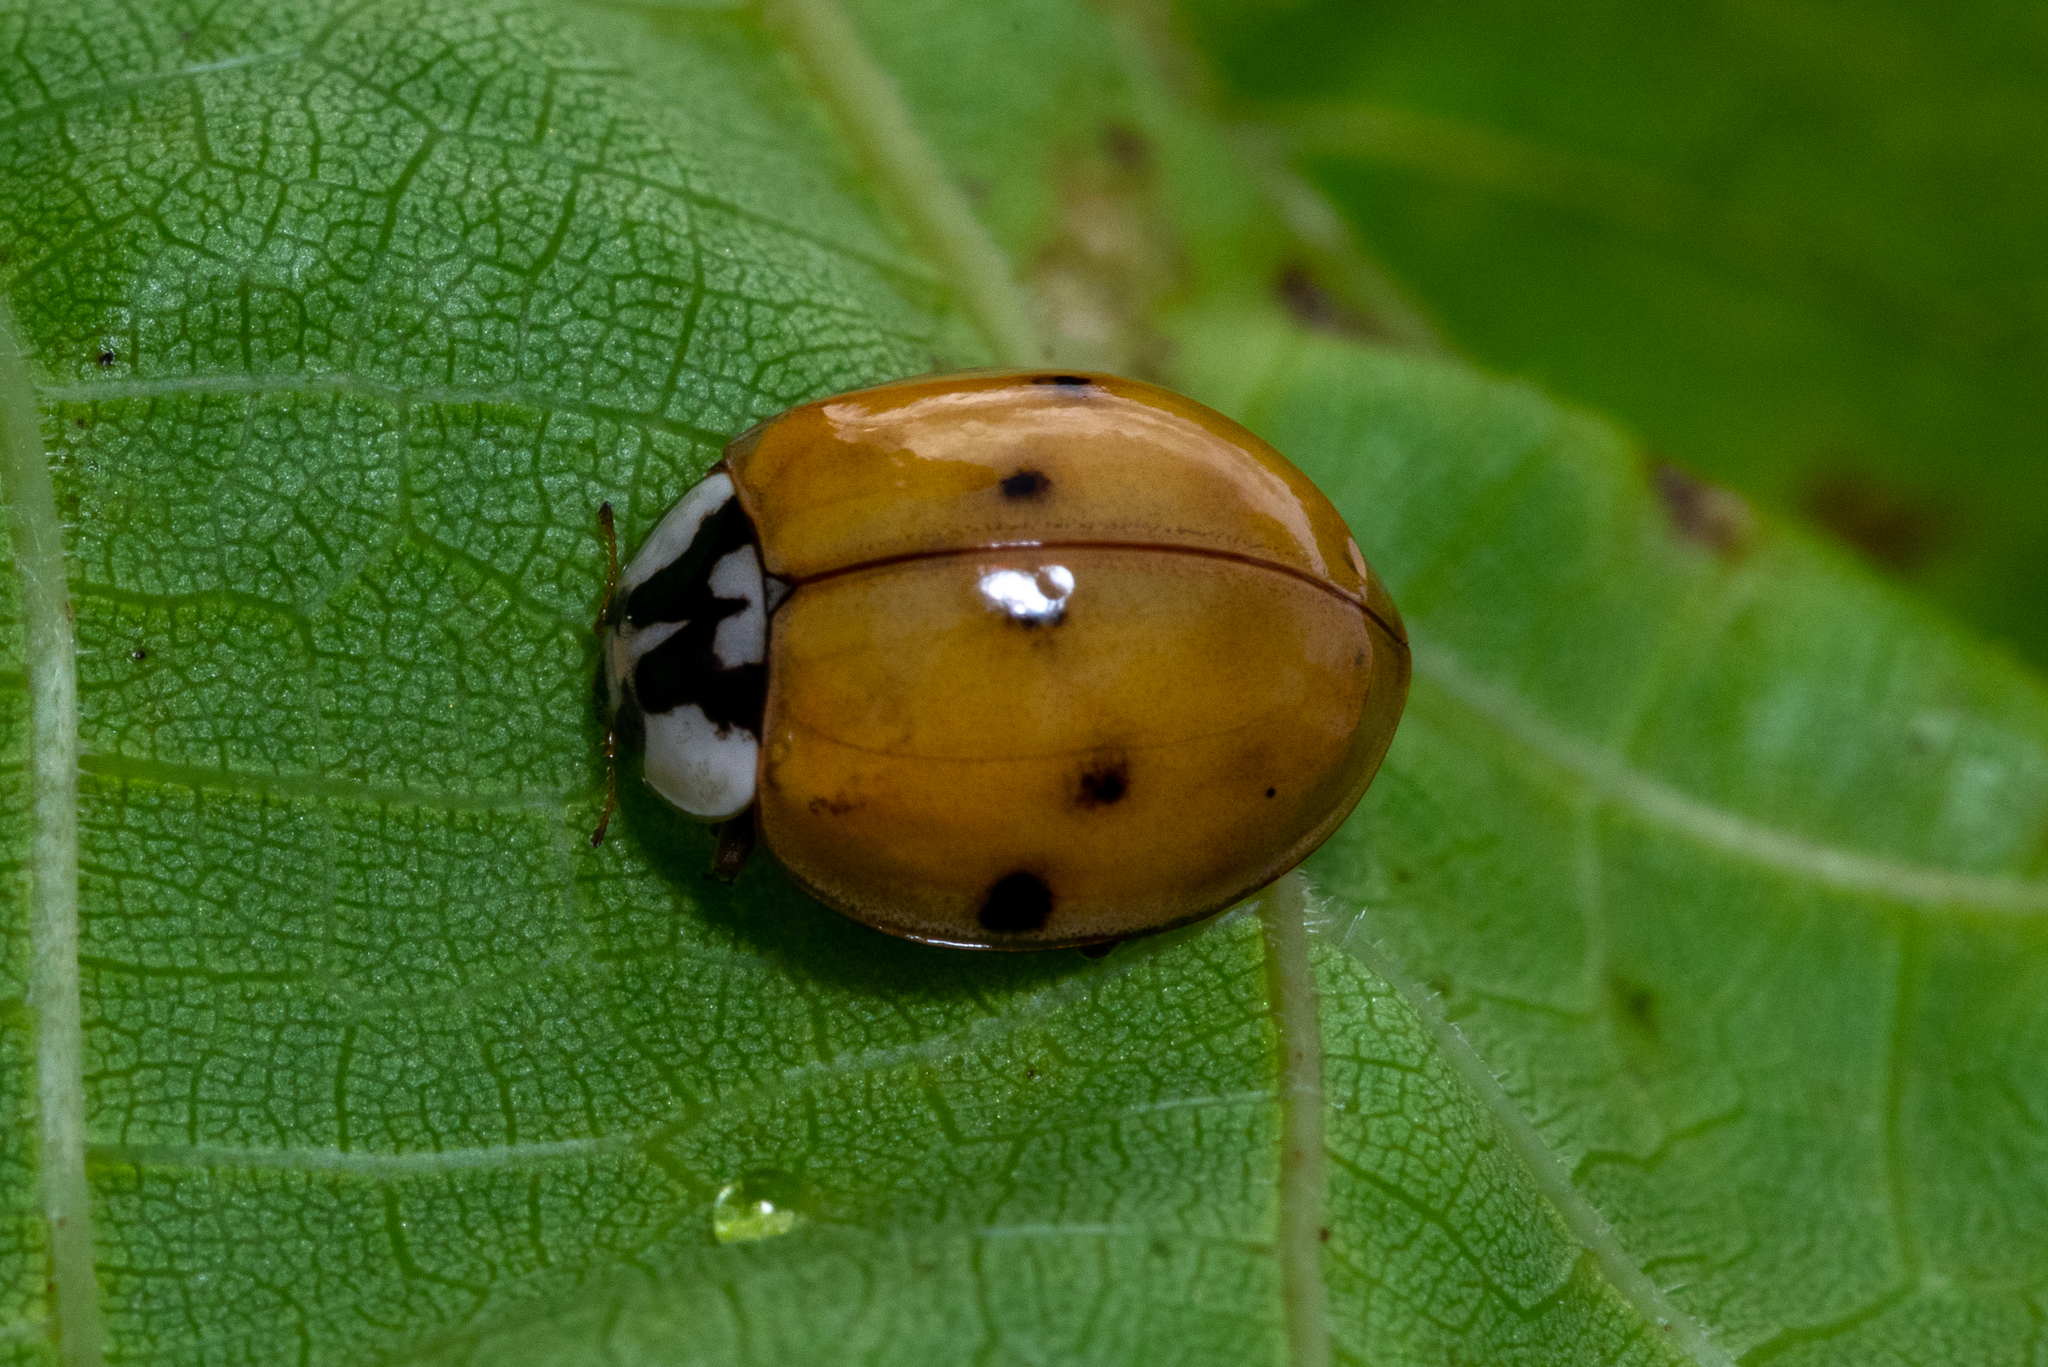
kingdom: Animalia
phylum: Arthropoda
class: Insecta
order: Coleoptera
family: Coccinellidae
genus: Harmonia
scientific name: Harmonia axyridis
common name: Harlequin ladybird
